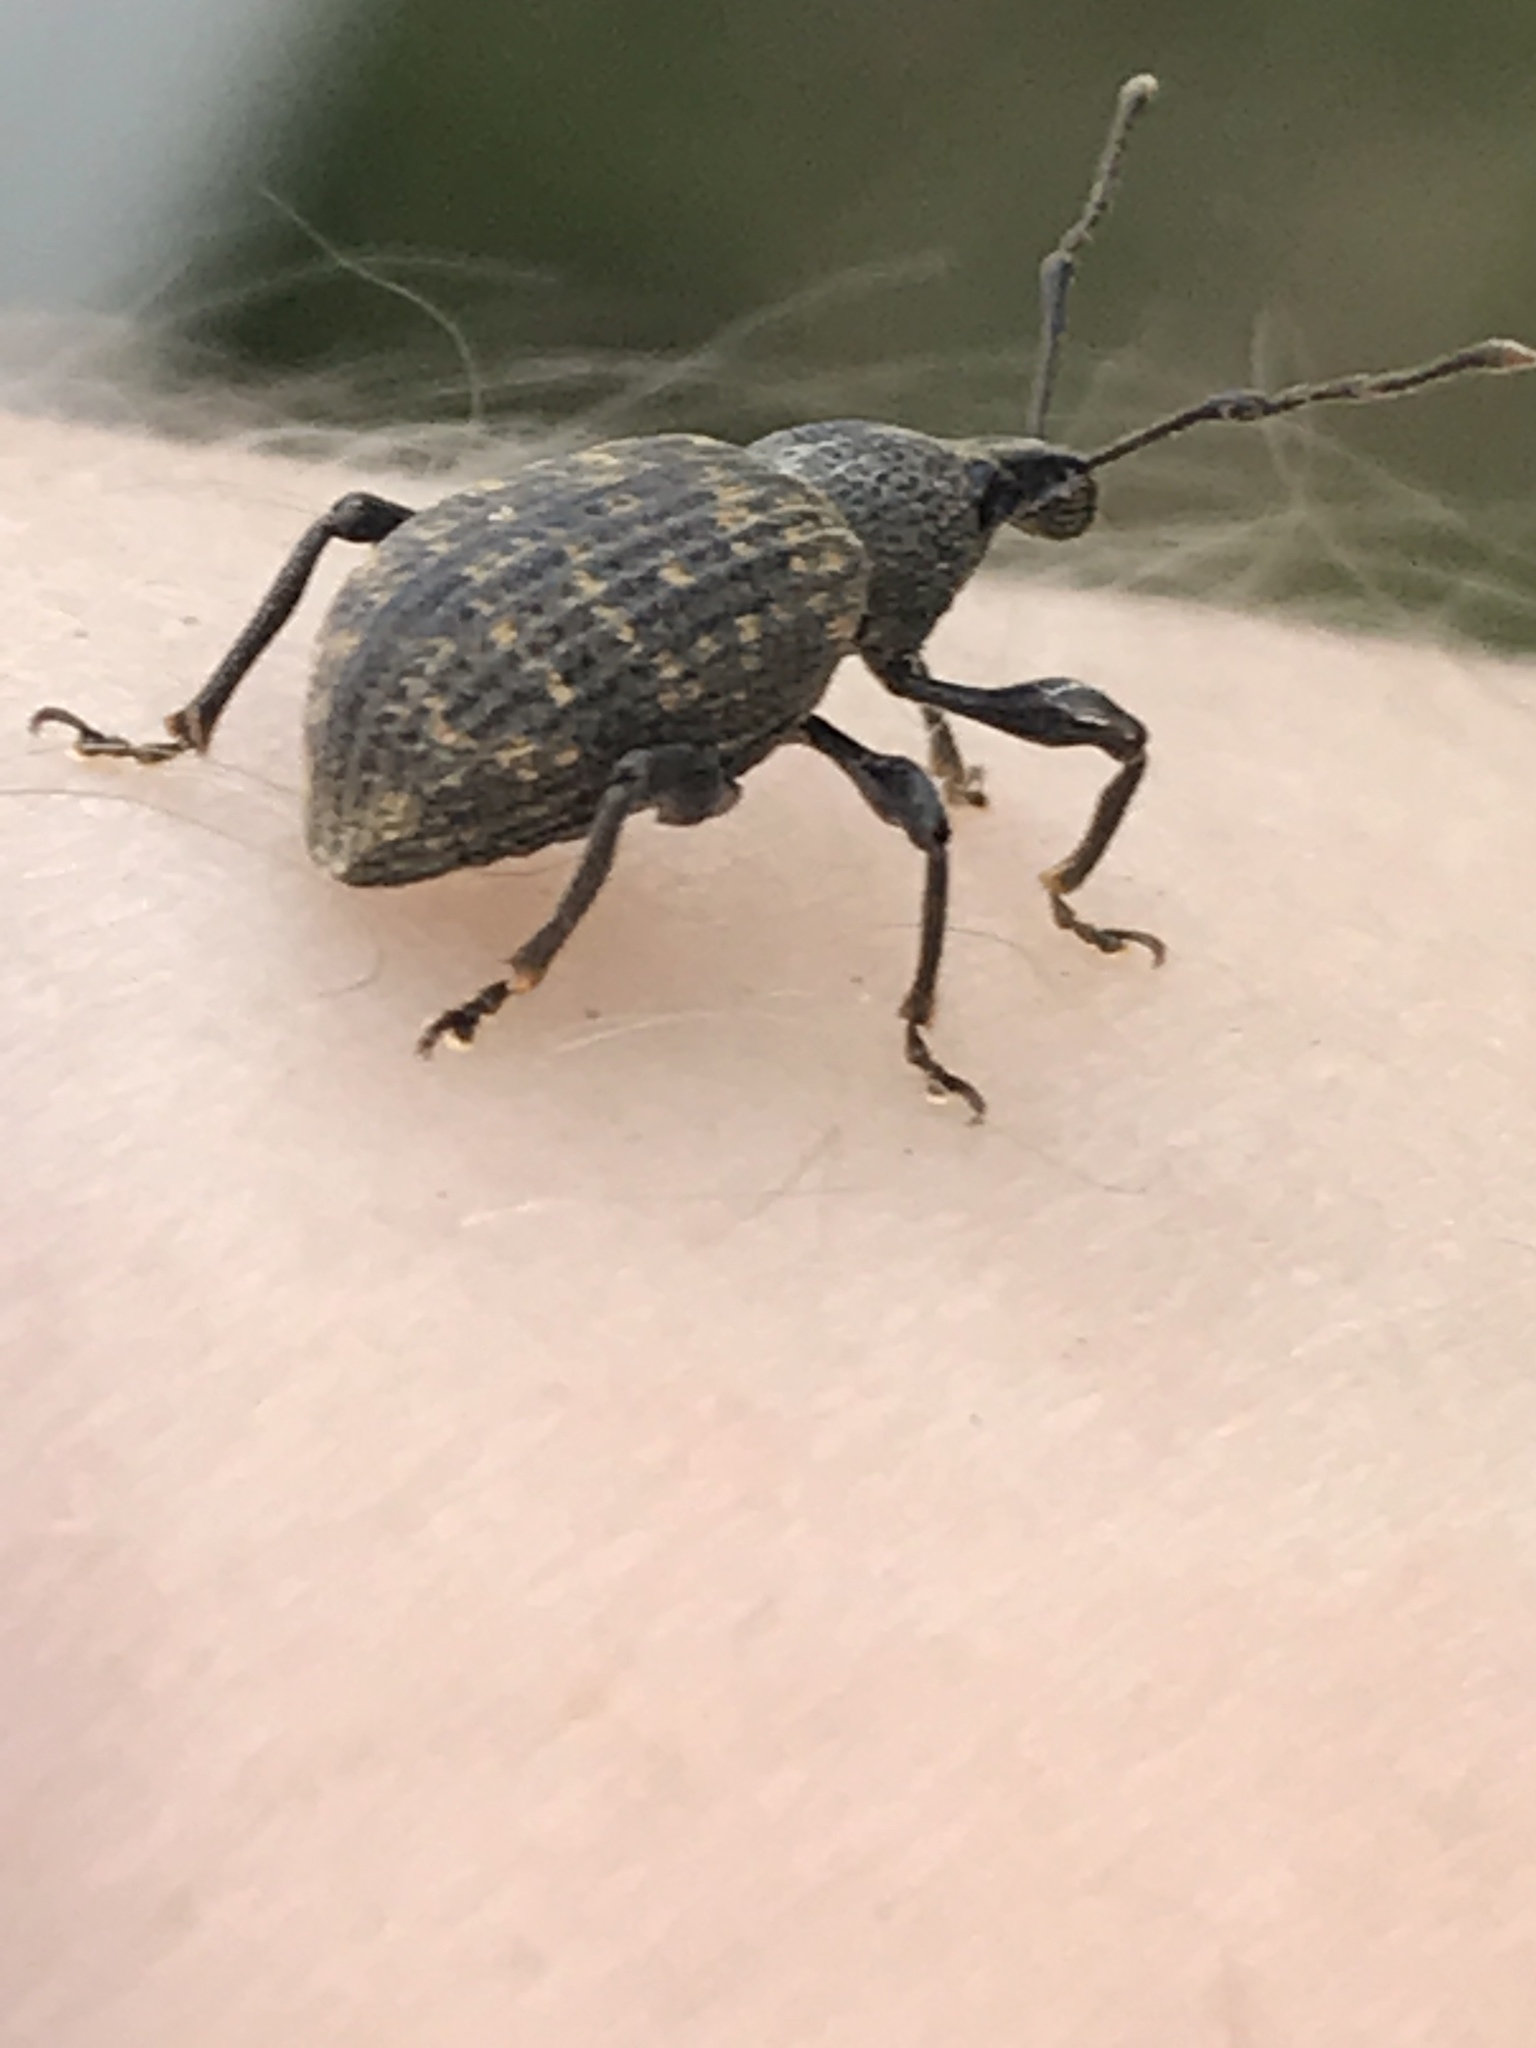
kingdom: Animalia
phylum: Arthropoda
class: Insecta
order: Coleoptera
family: Curculionidae
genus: Otiorhynchus
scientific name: Otiorhynchus sulcatus
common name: Black vine weevil
